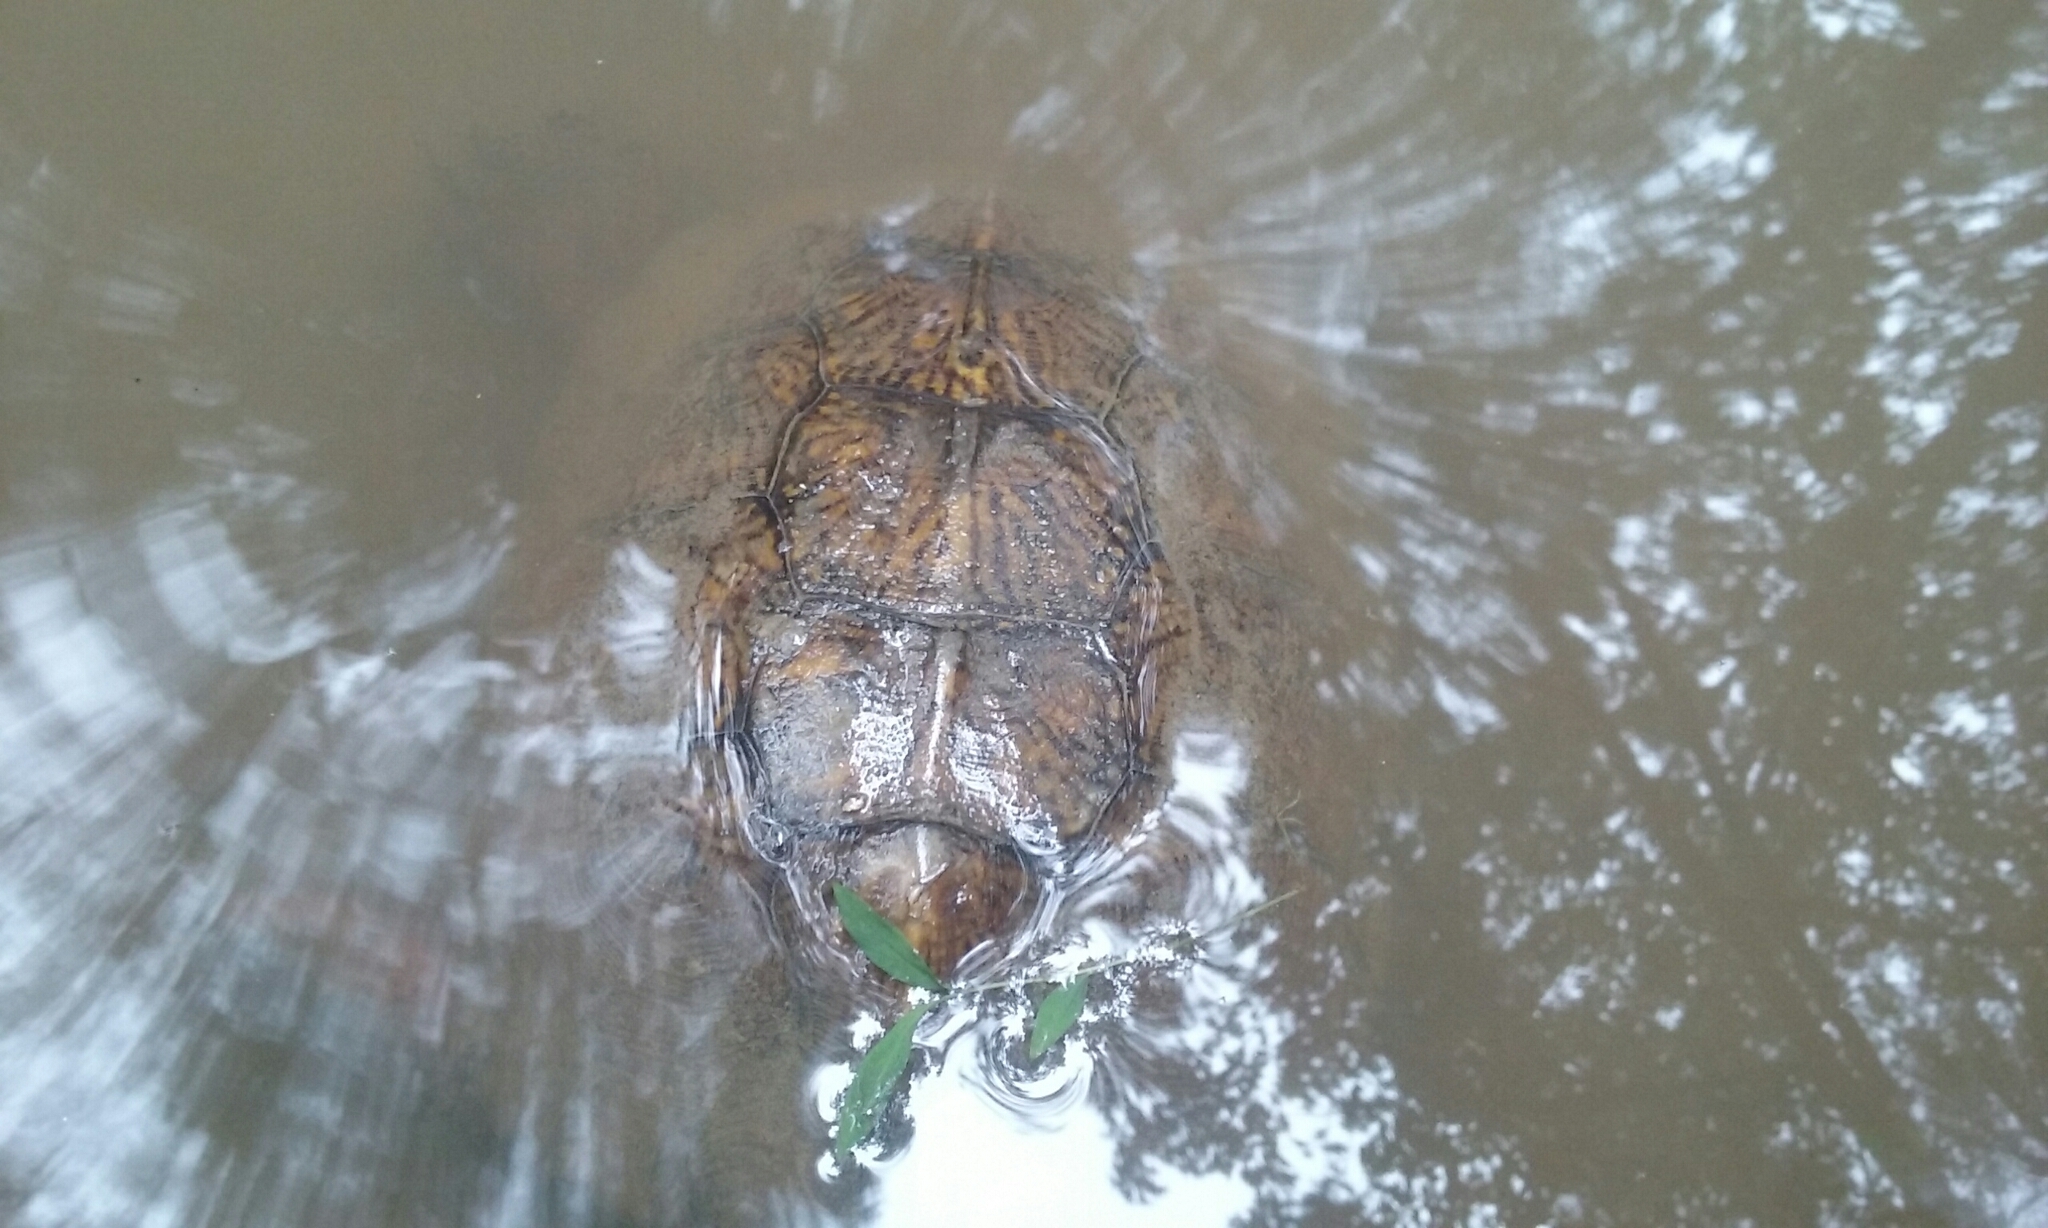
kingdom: Animalia
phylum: Chordata
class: Testudines
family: Emydidae
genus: Glyptemys
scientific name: Glyptemys insculpta
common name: Wood turtle
